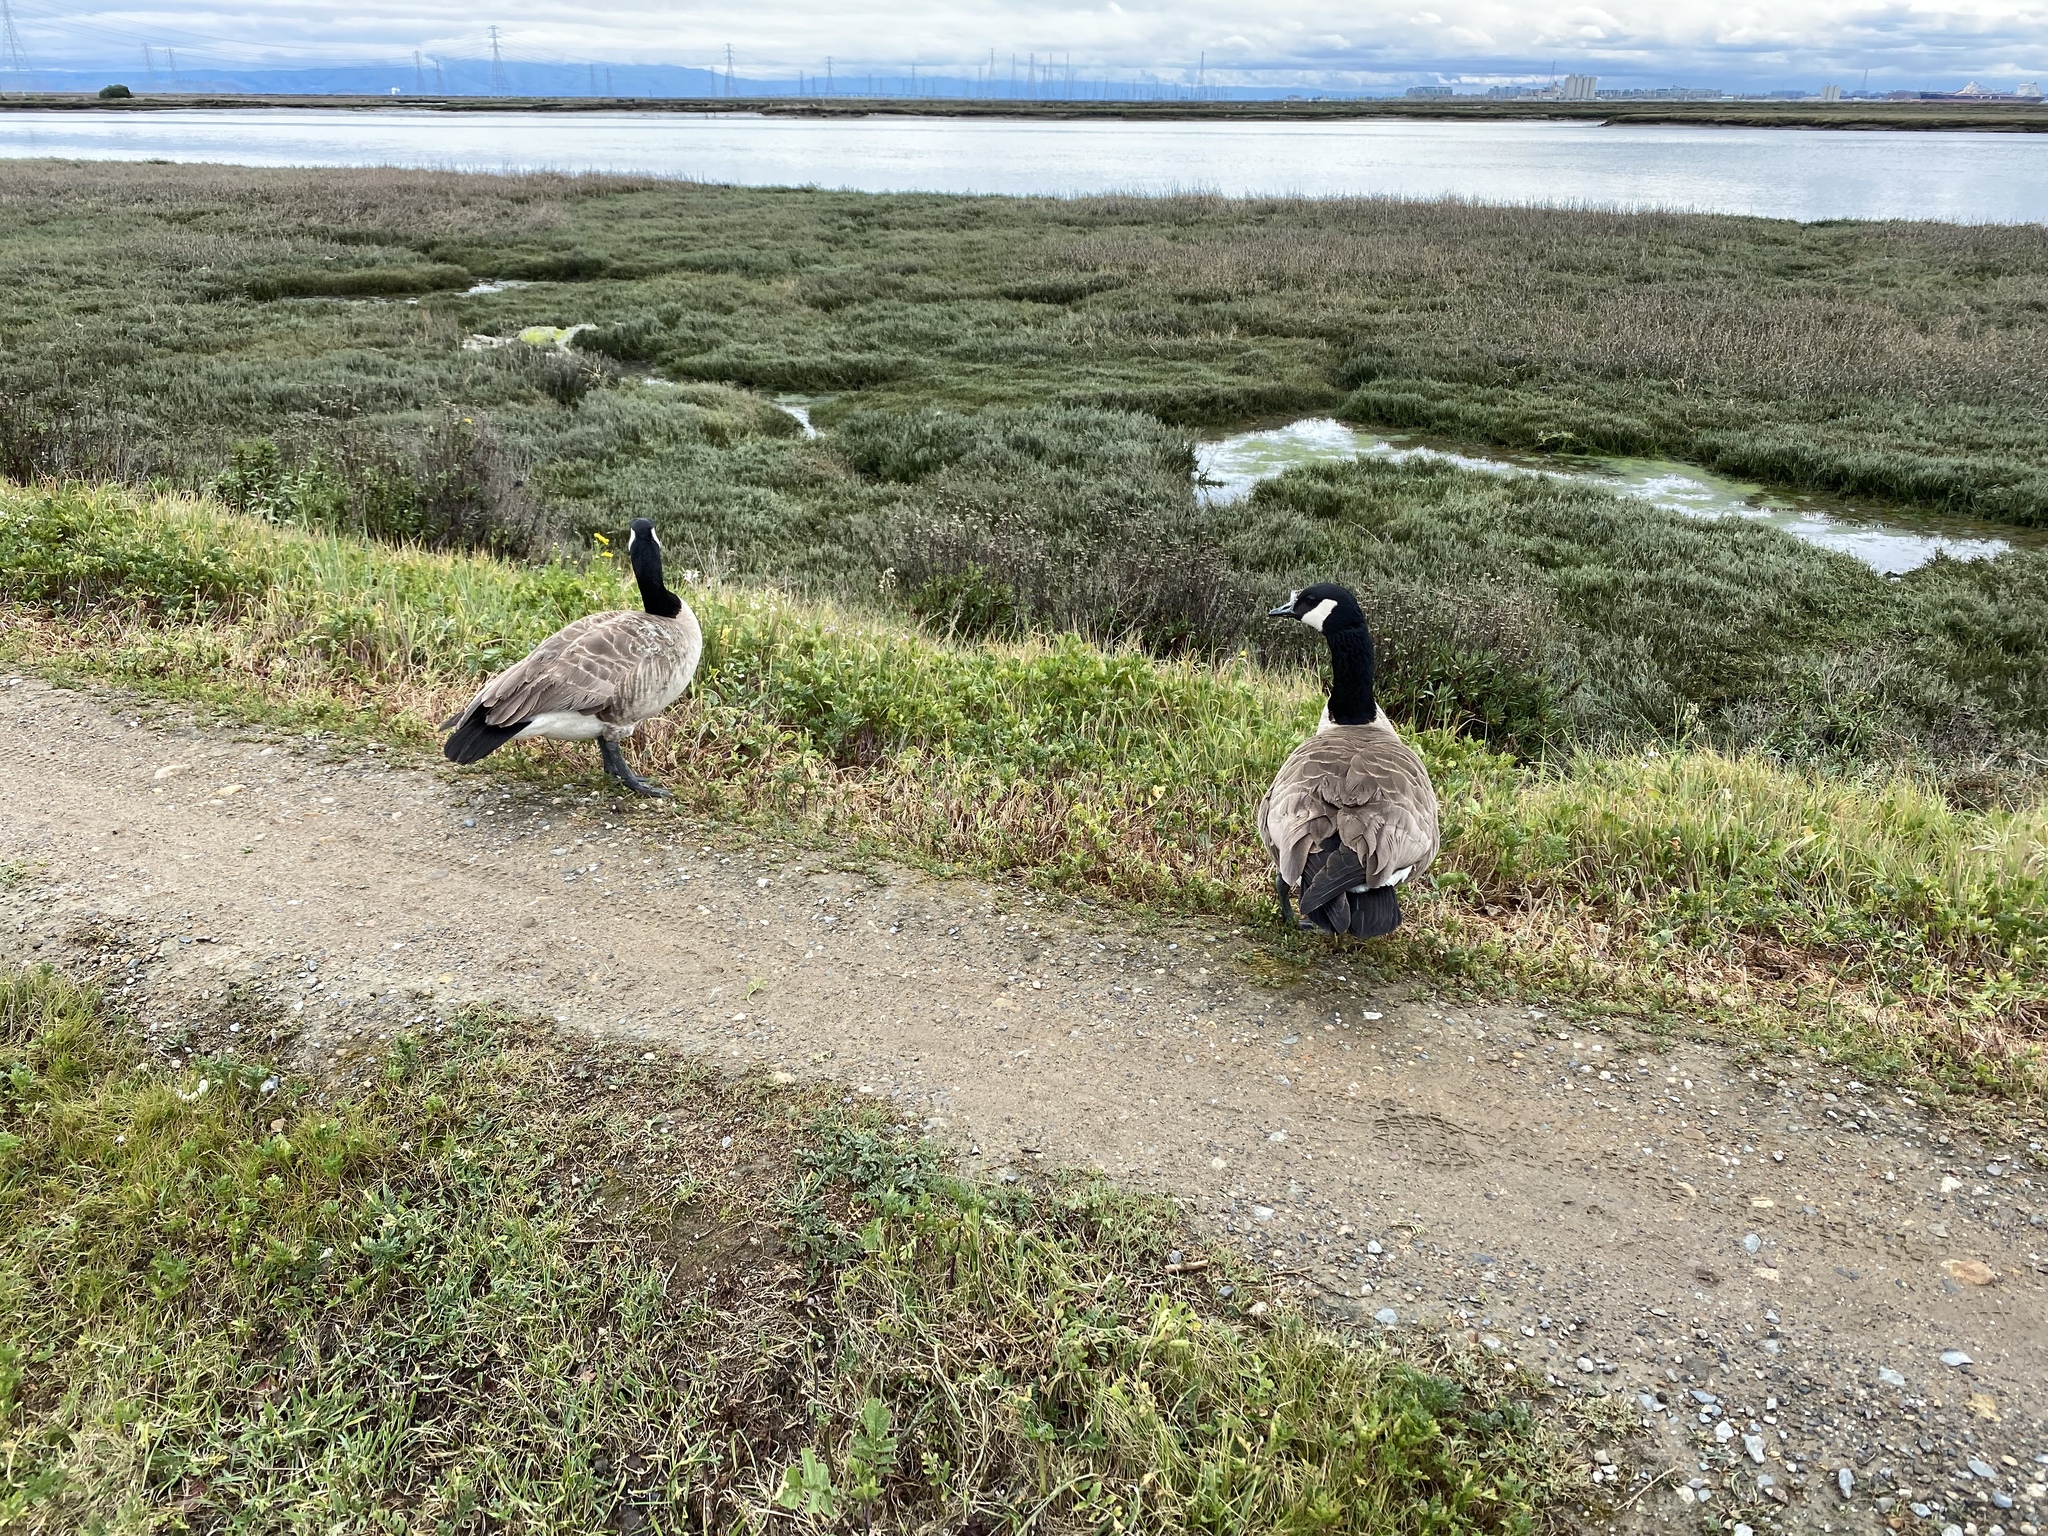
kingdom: Animalia
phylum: Chordata
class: Aves
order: Anseriformes
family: Anatidae
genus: Branta
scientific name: Branta canadensis
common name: Canada goose
